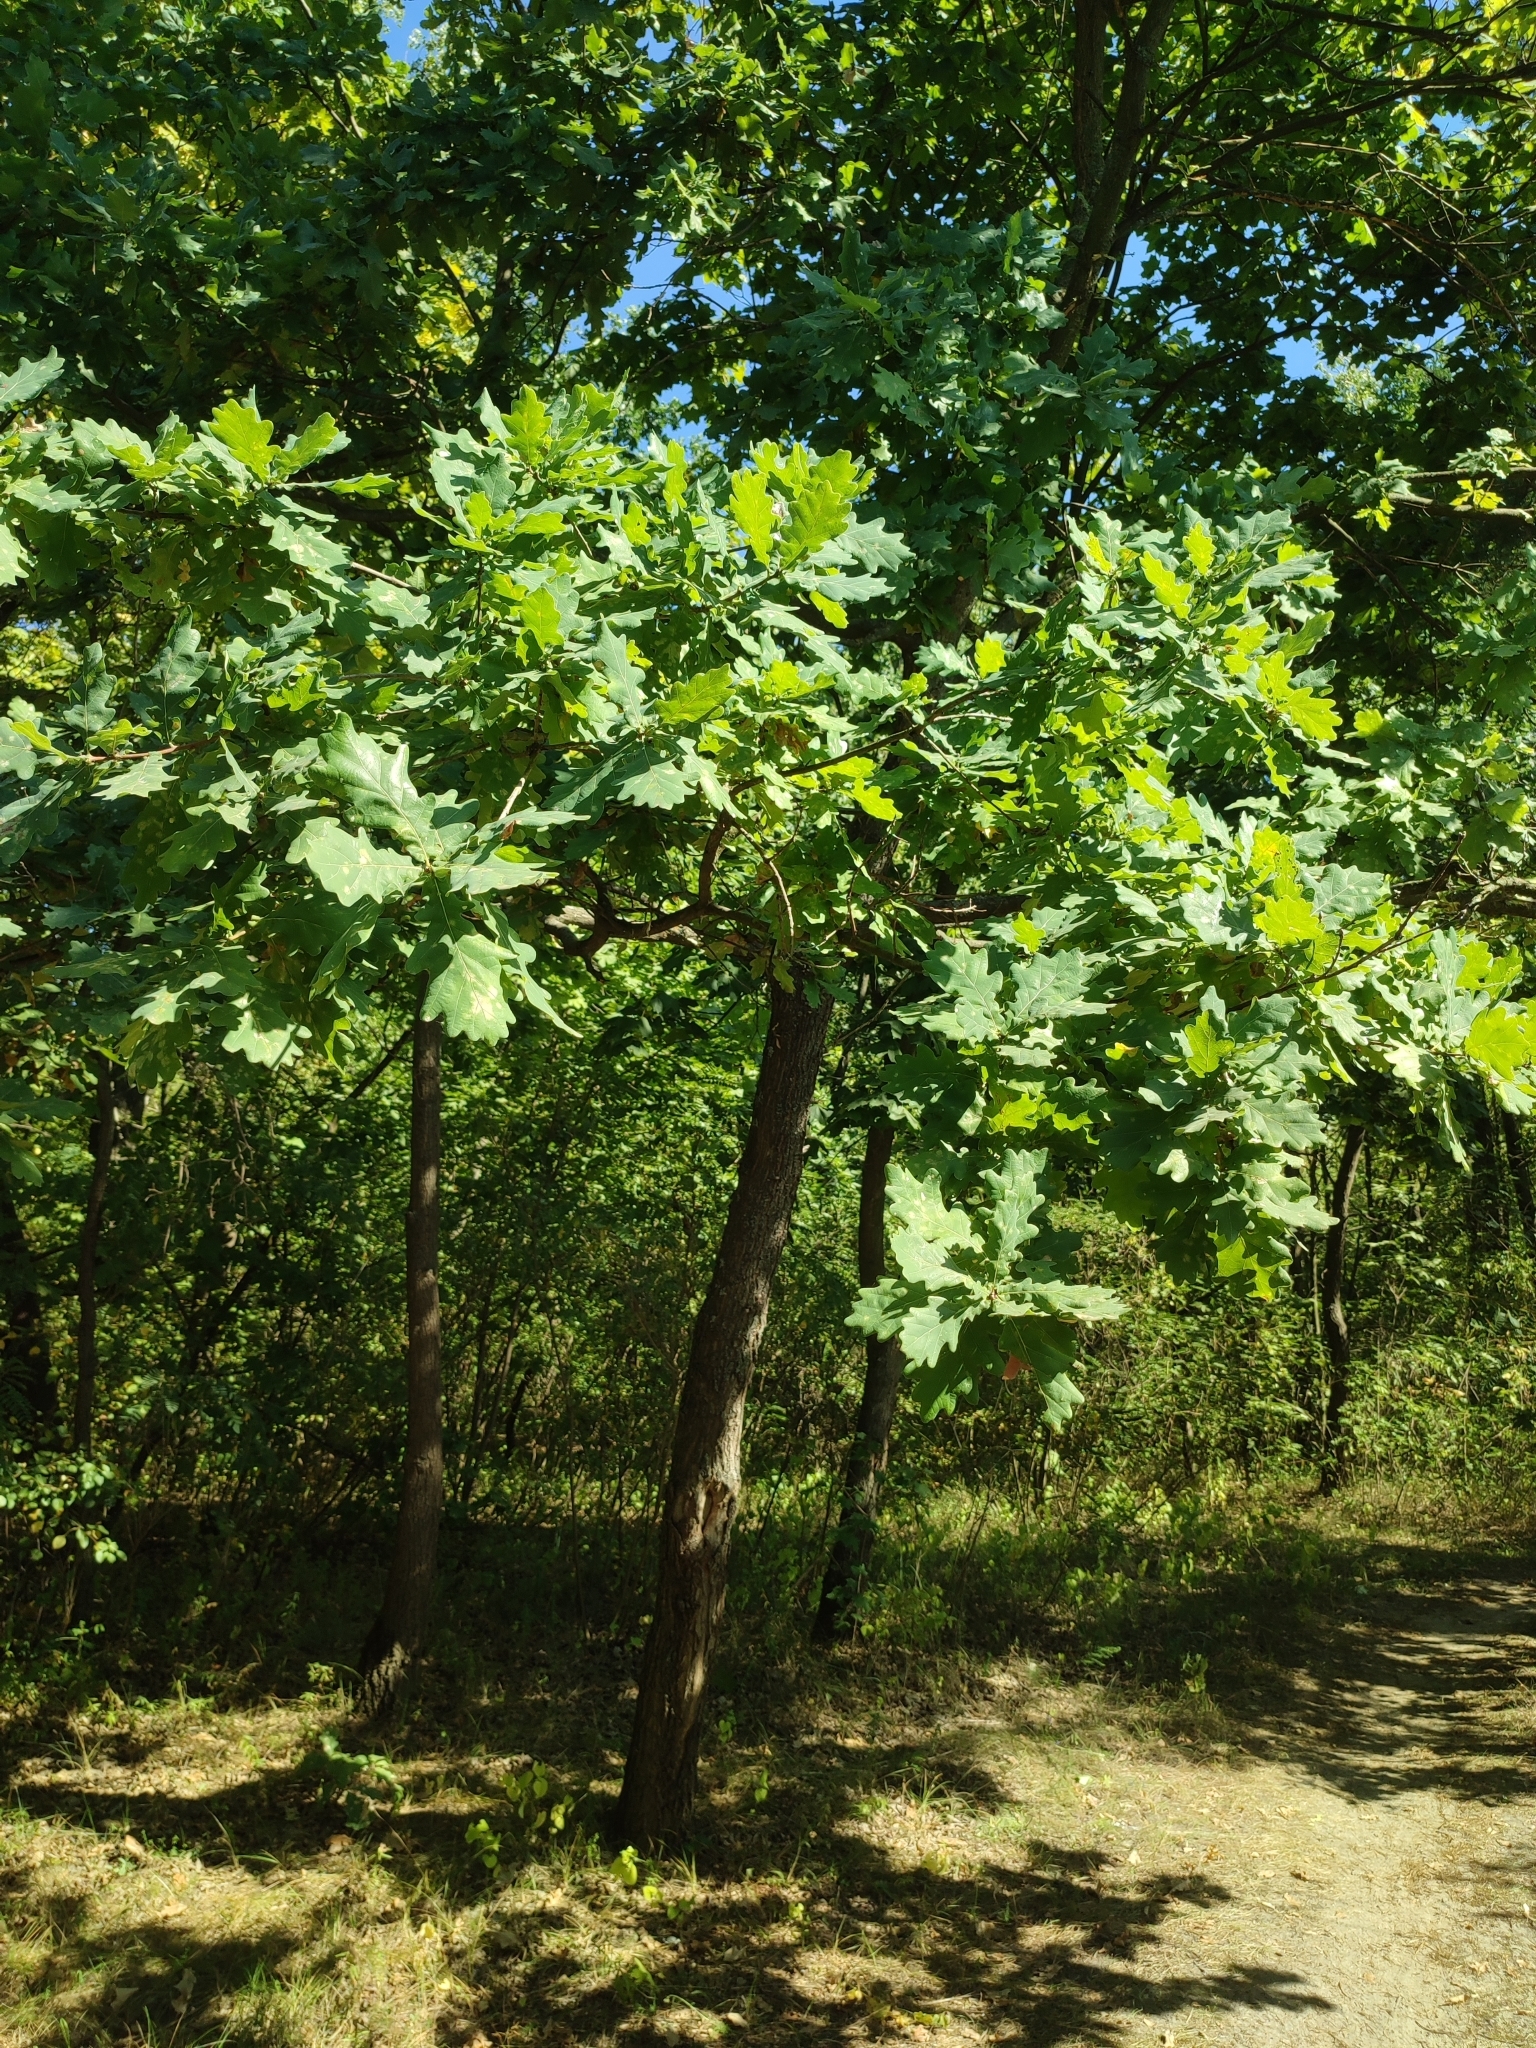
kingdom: Plantae
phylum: Tracheophyta
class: Magnoliopsida
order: Fagales
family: Fagaceae
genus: Quercus
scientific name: Quercus robur
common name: Pedunculate oak
